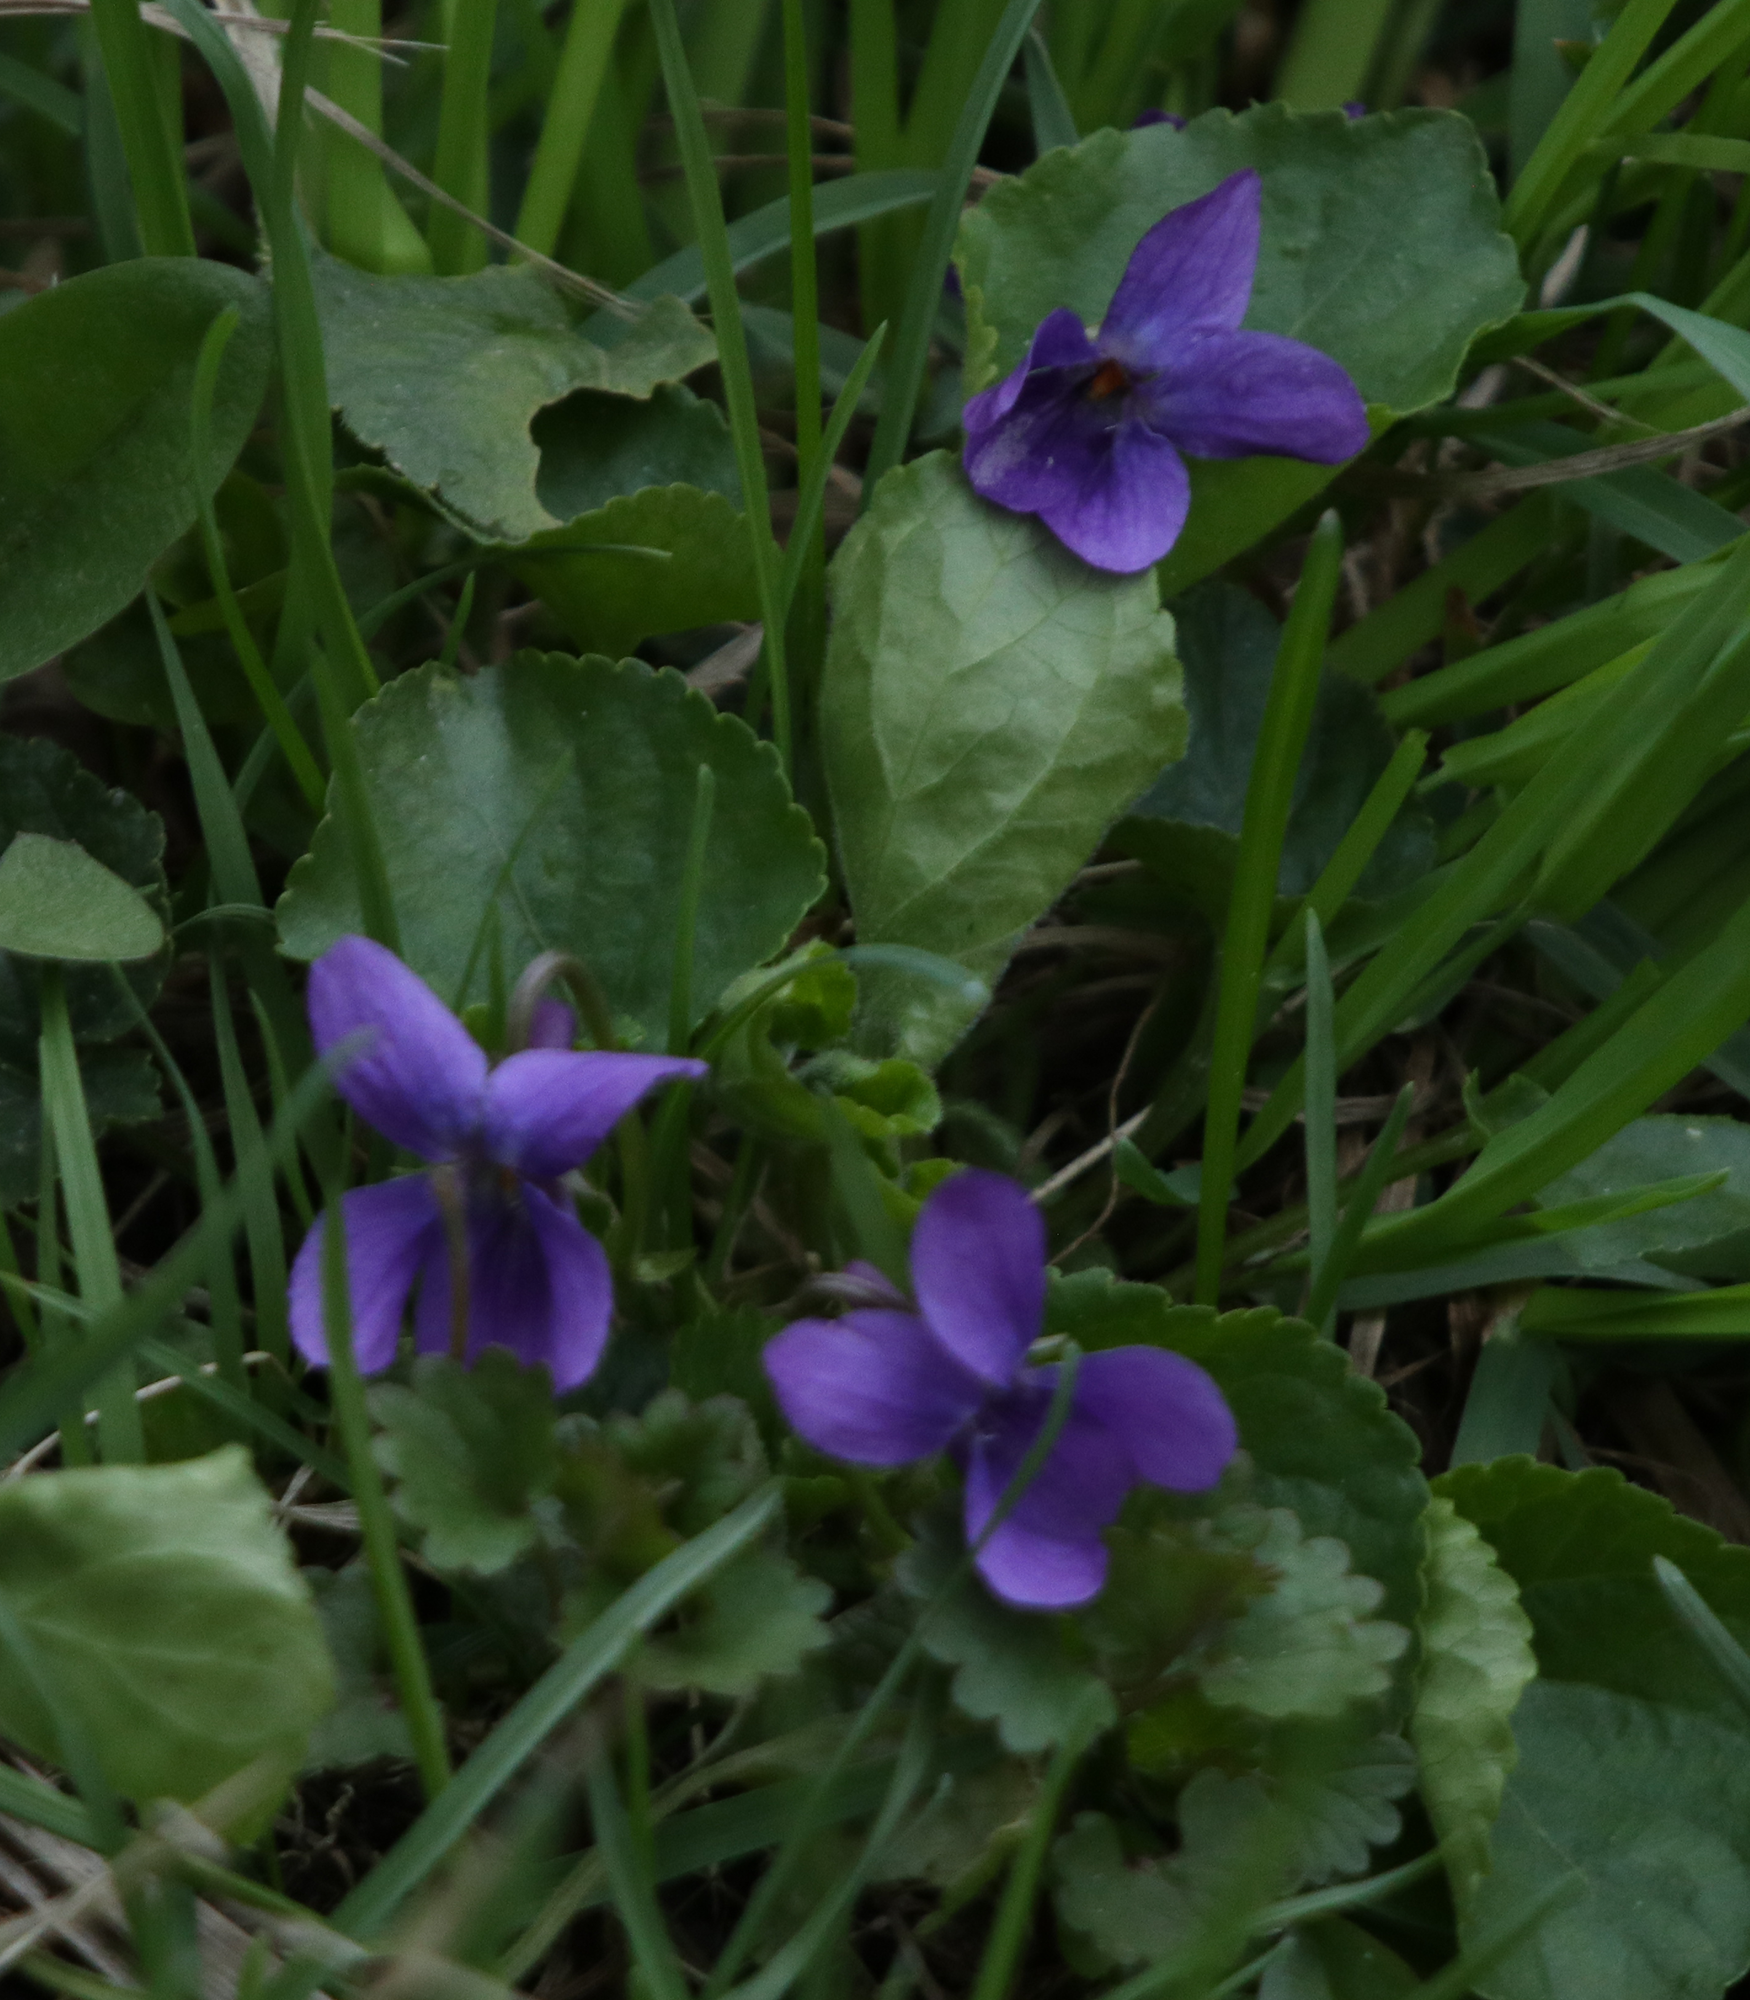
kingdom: Plantae
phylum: Tracheophyta
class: Magnoliopsida
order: Malpighiales
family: Violaceae
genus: Viola
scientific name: Viola odorata
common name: Sweet violet
